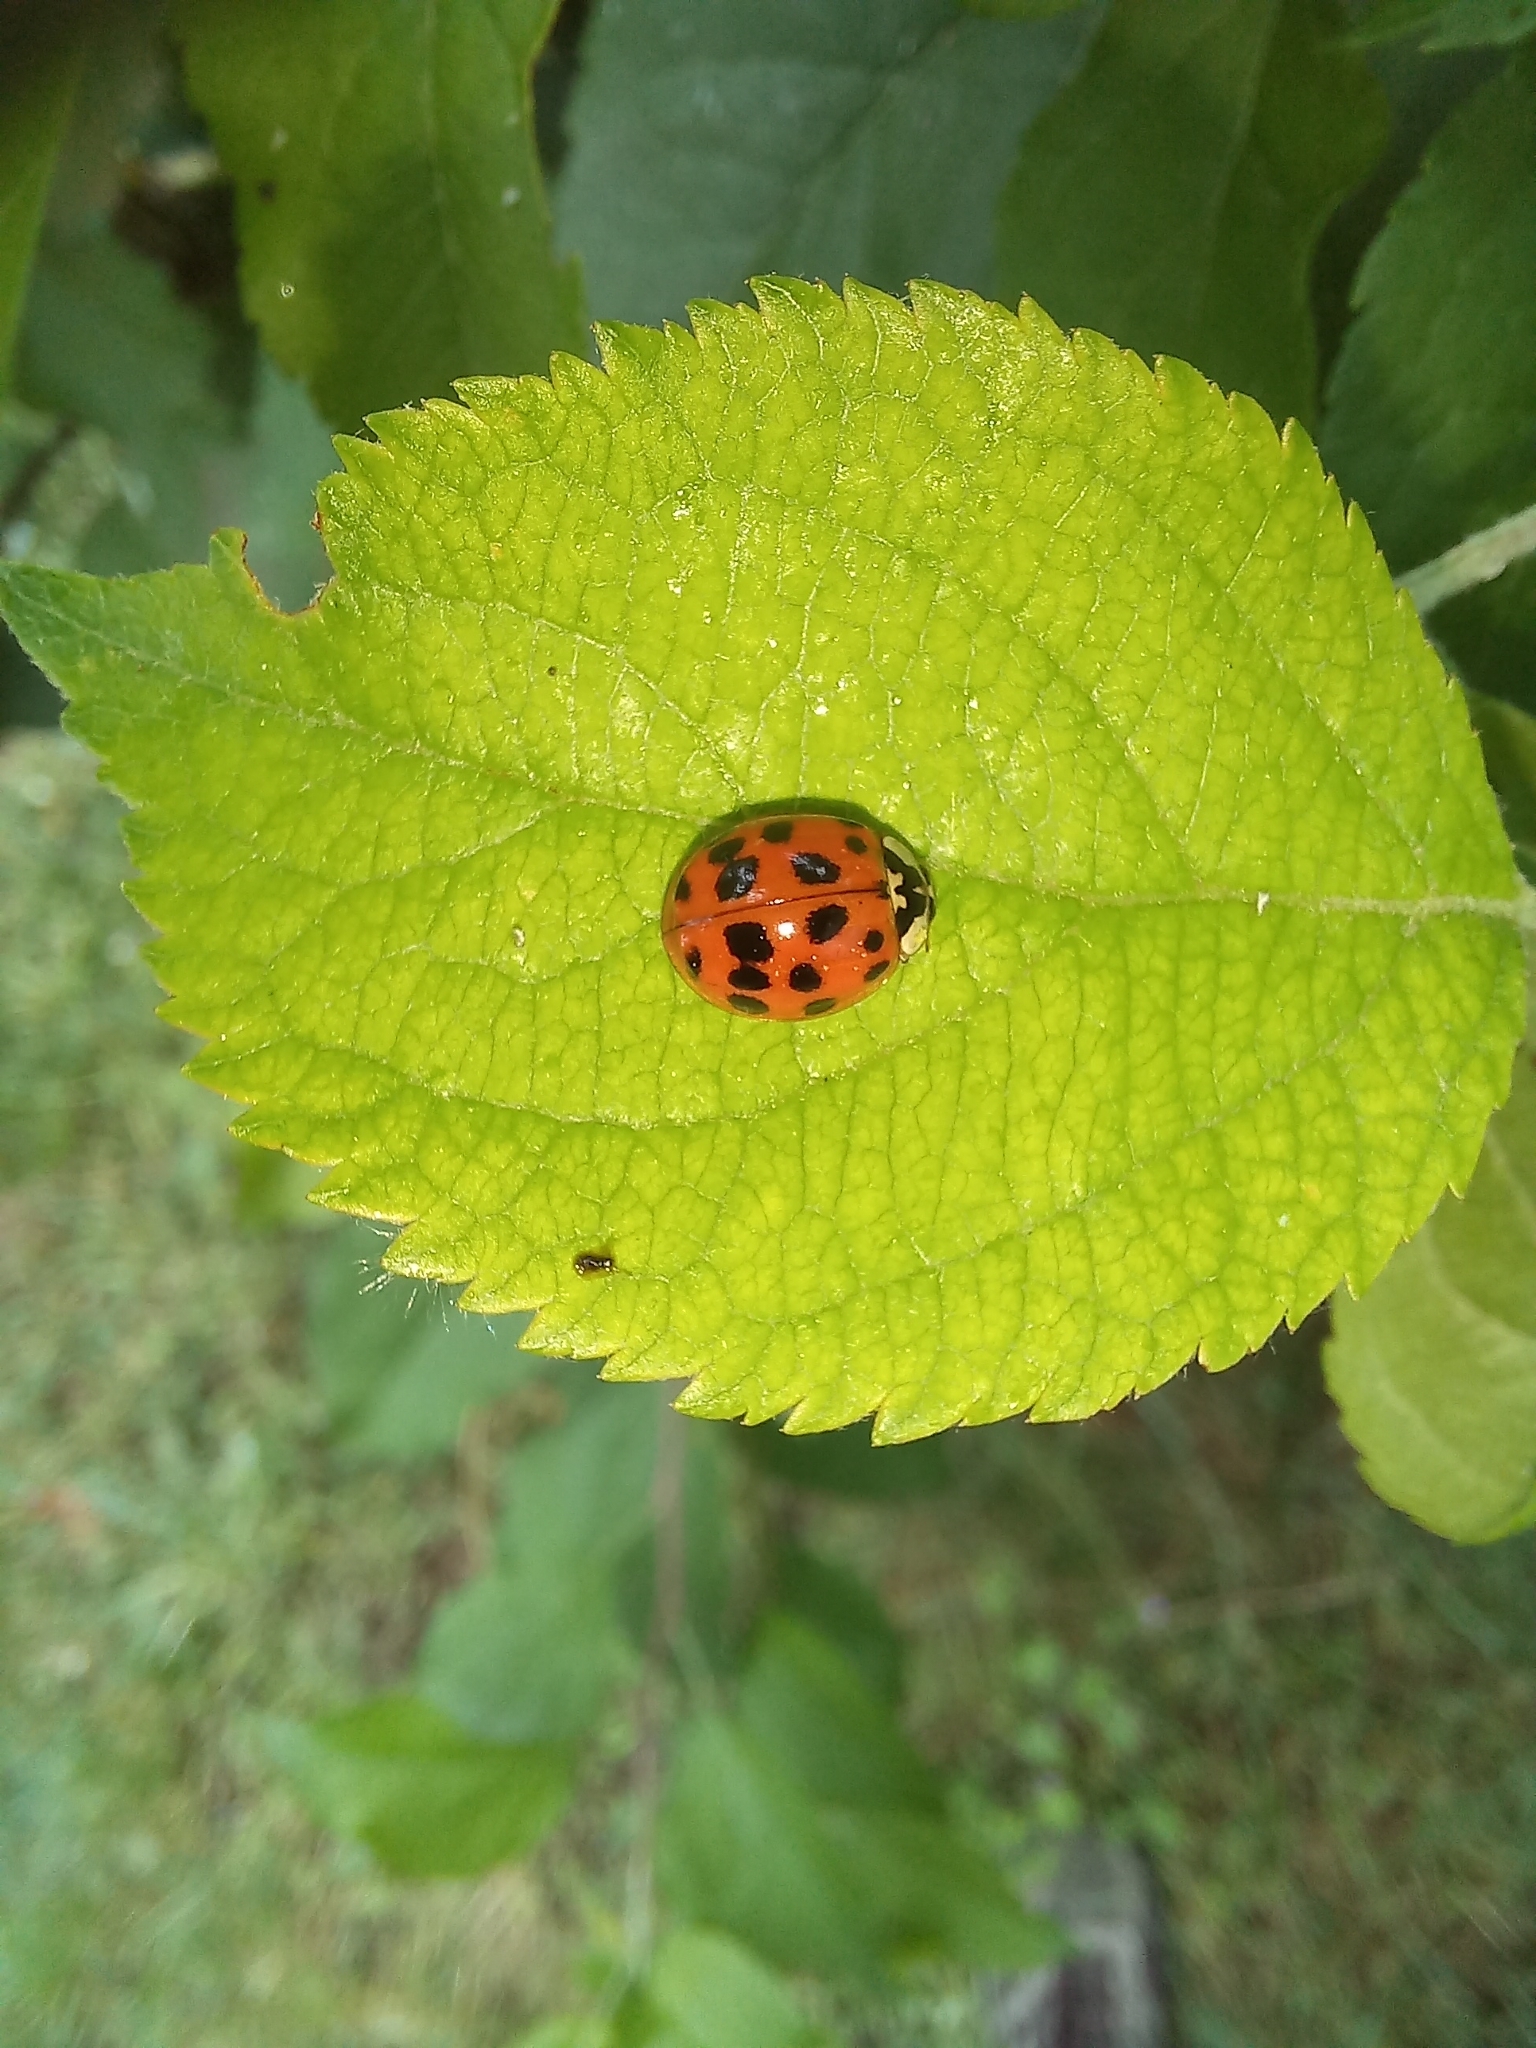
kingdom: Animalia
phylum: Arthropoda
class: Insecta
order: Coleoptera
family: Coccinellidae
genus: Harmonia
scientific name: Harmonia axyridis
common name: Harlequin ladybird
